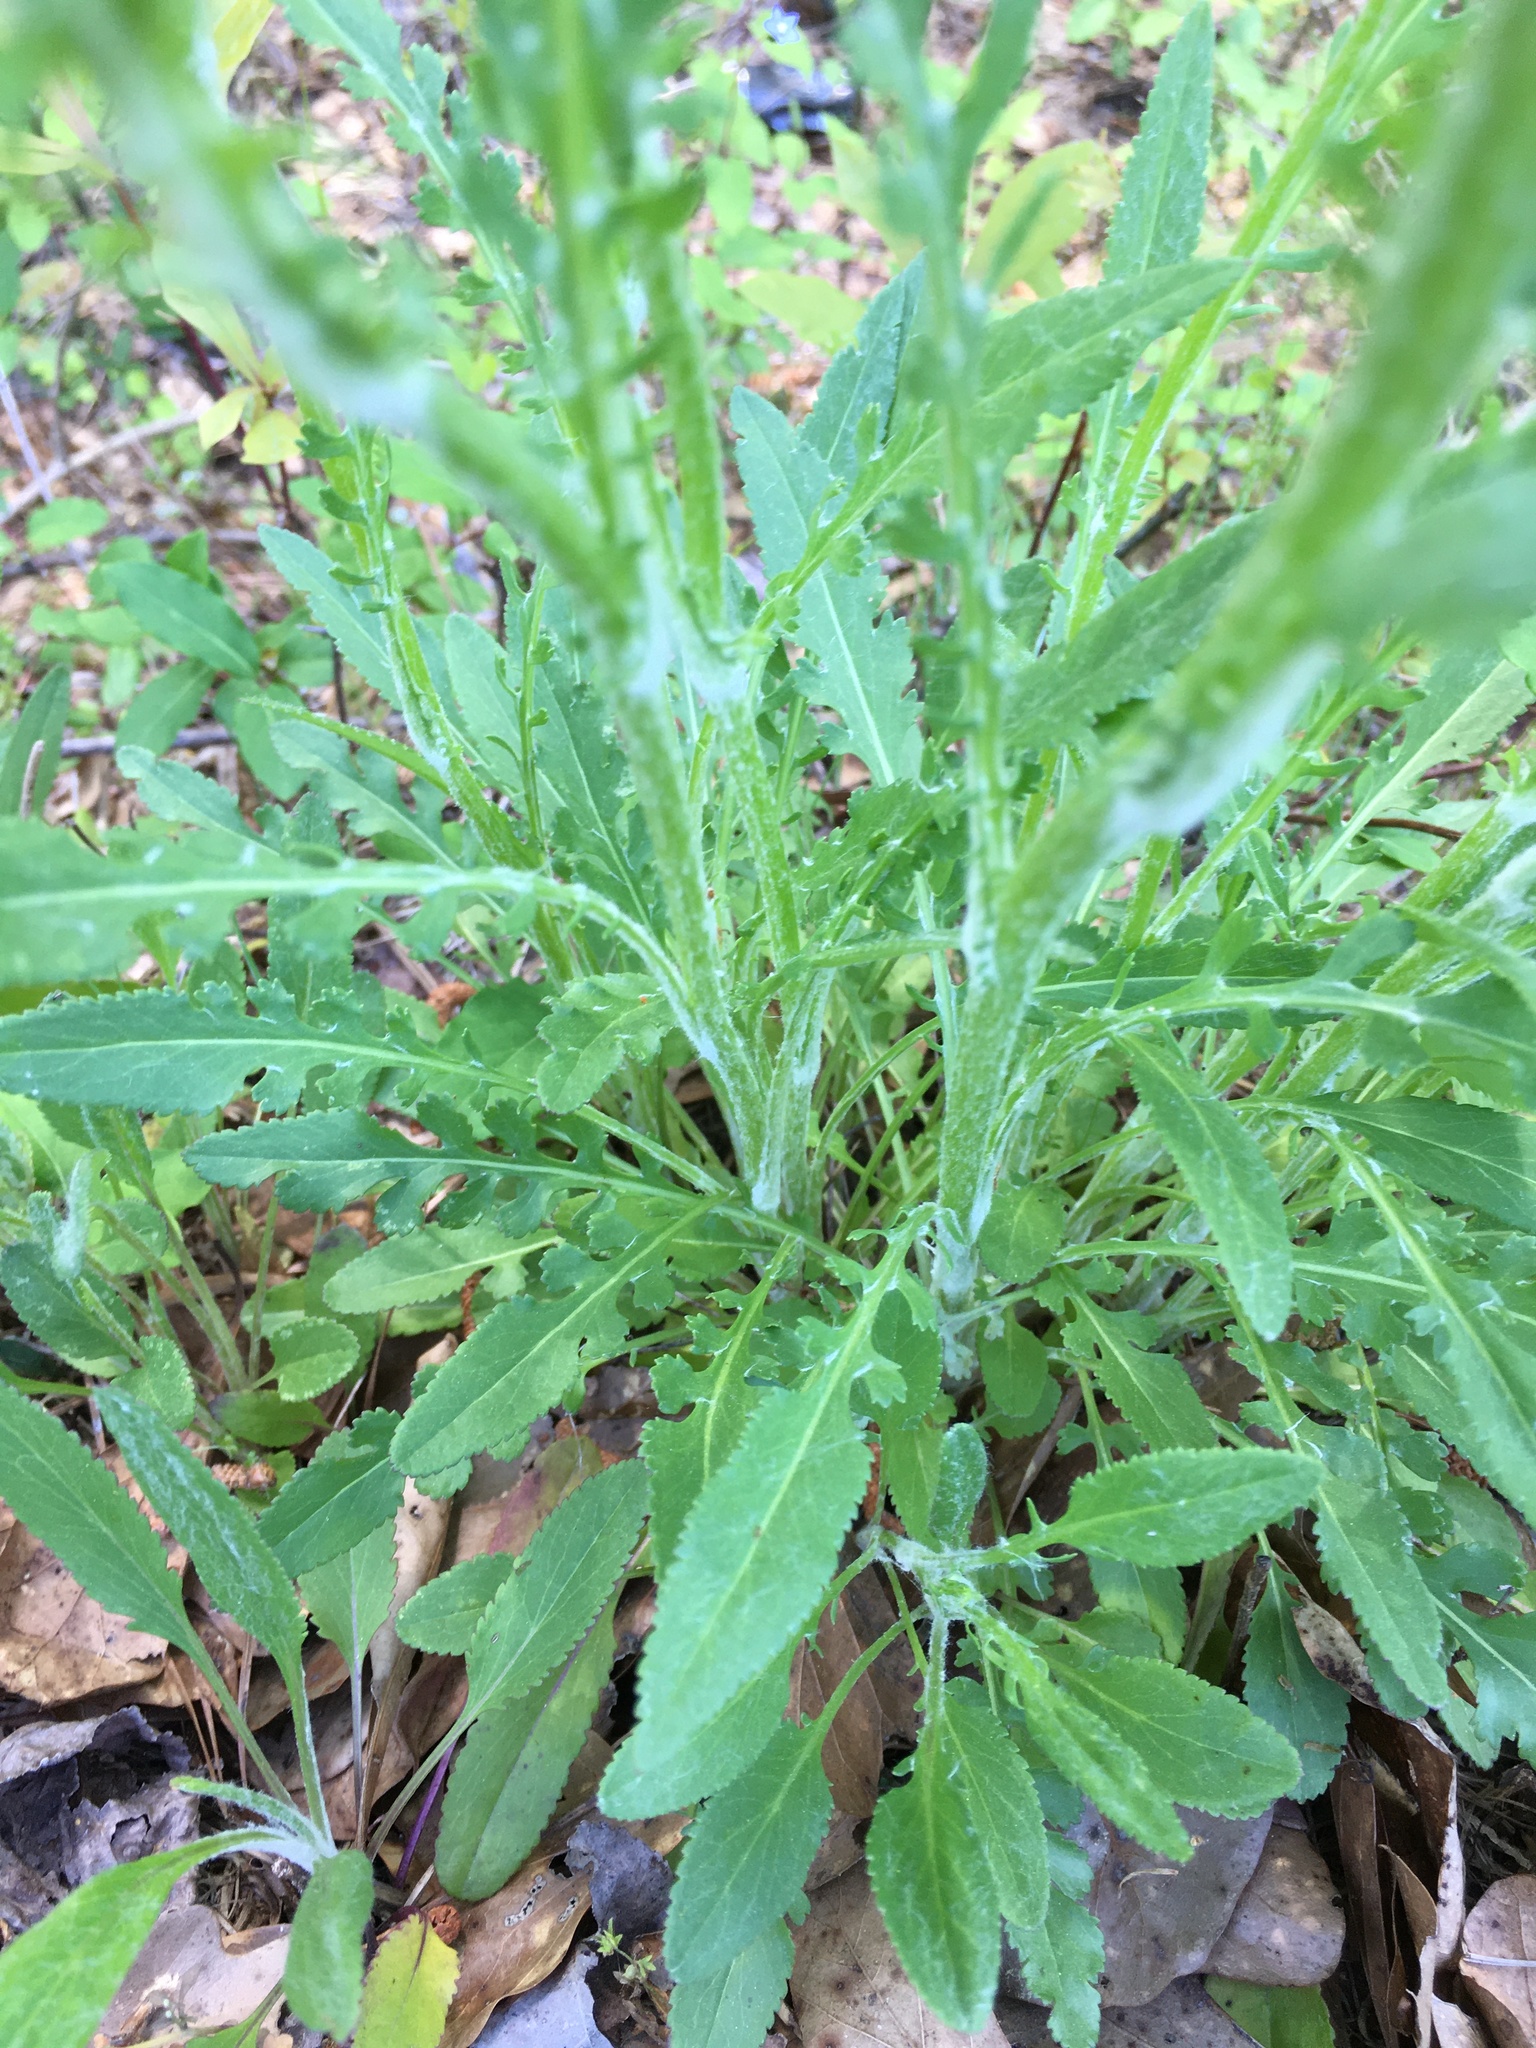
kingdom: Plantae
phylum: Tracheophyta
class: Magnoliopsida
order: Asterales
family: Asteraceae
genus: Packera
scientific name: Packera anonyma
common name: Small ragwort
